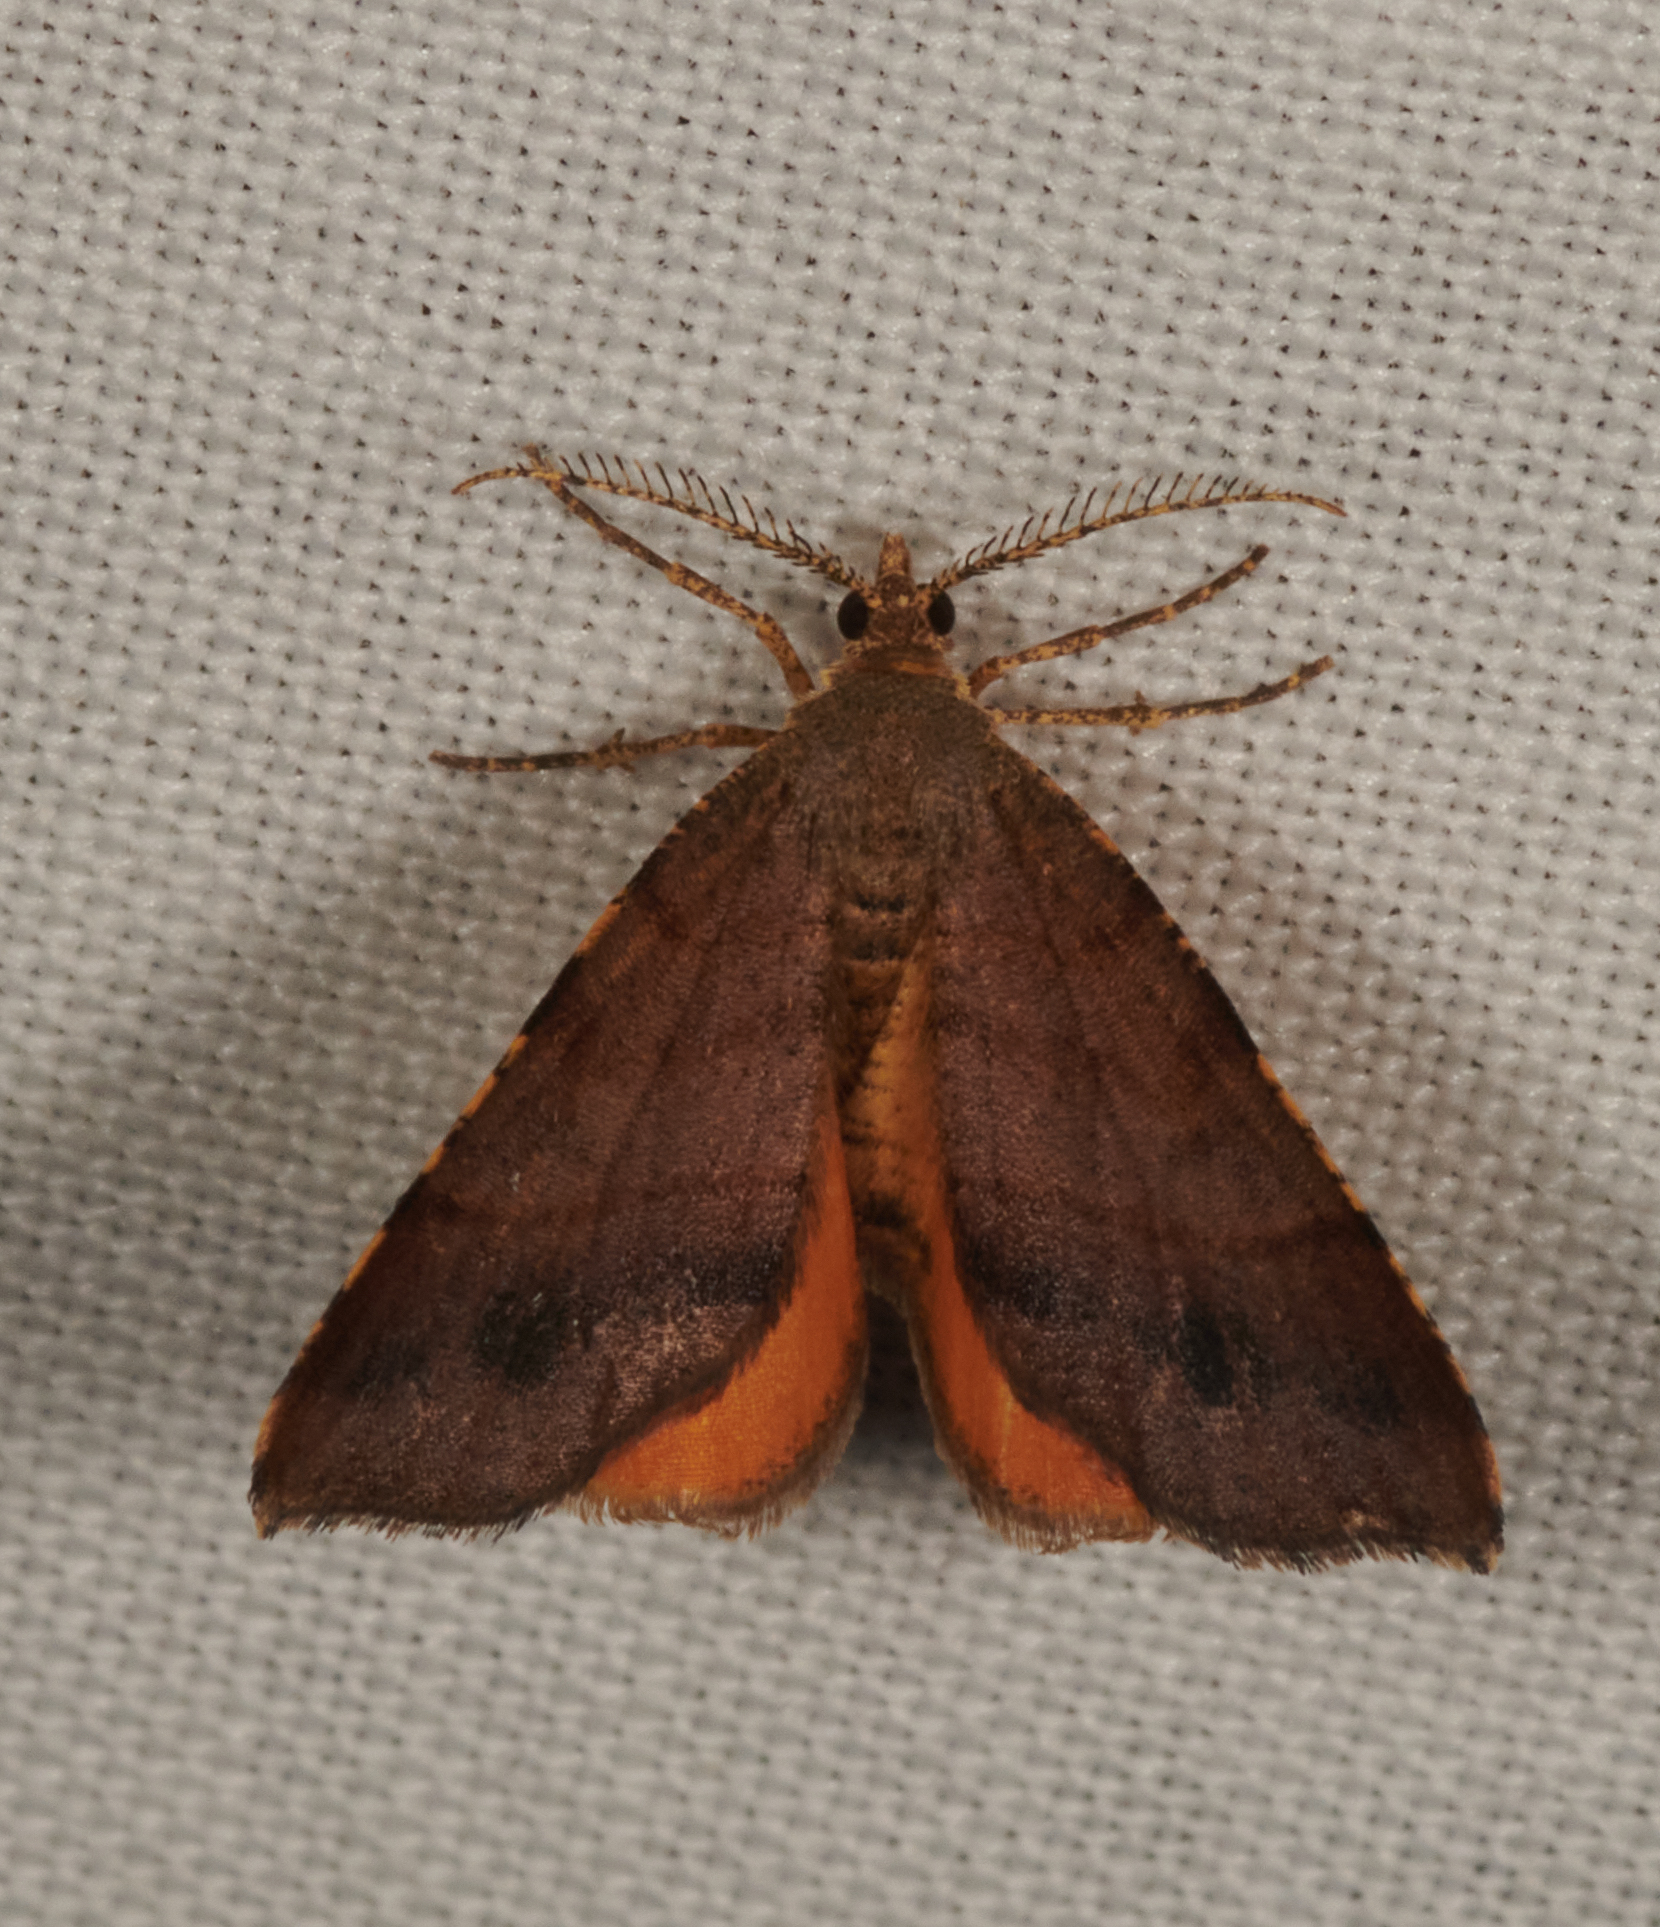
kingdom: Animalia
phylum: Arthropoda
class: Insecta
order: Lepidoptera
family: Geometridae
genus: Mellilla
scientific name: Mellilla xanthometata
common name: Orange wing moth
